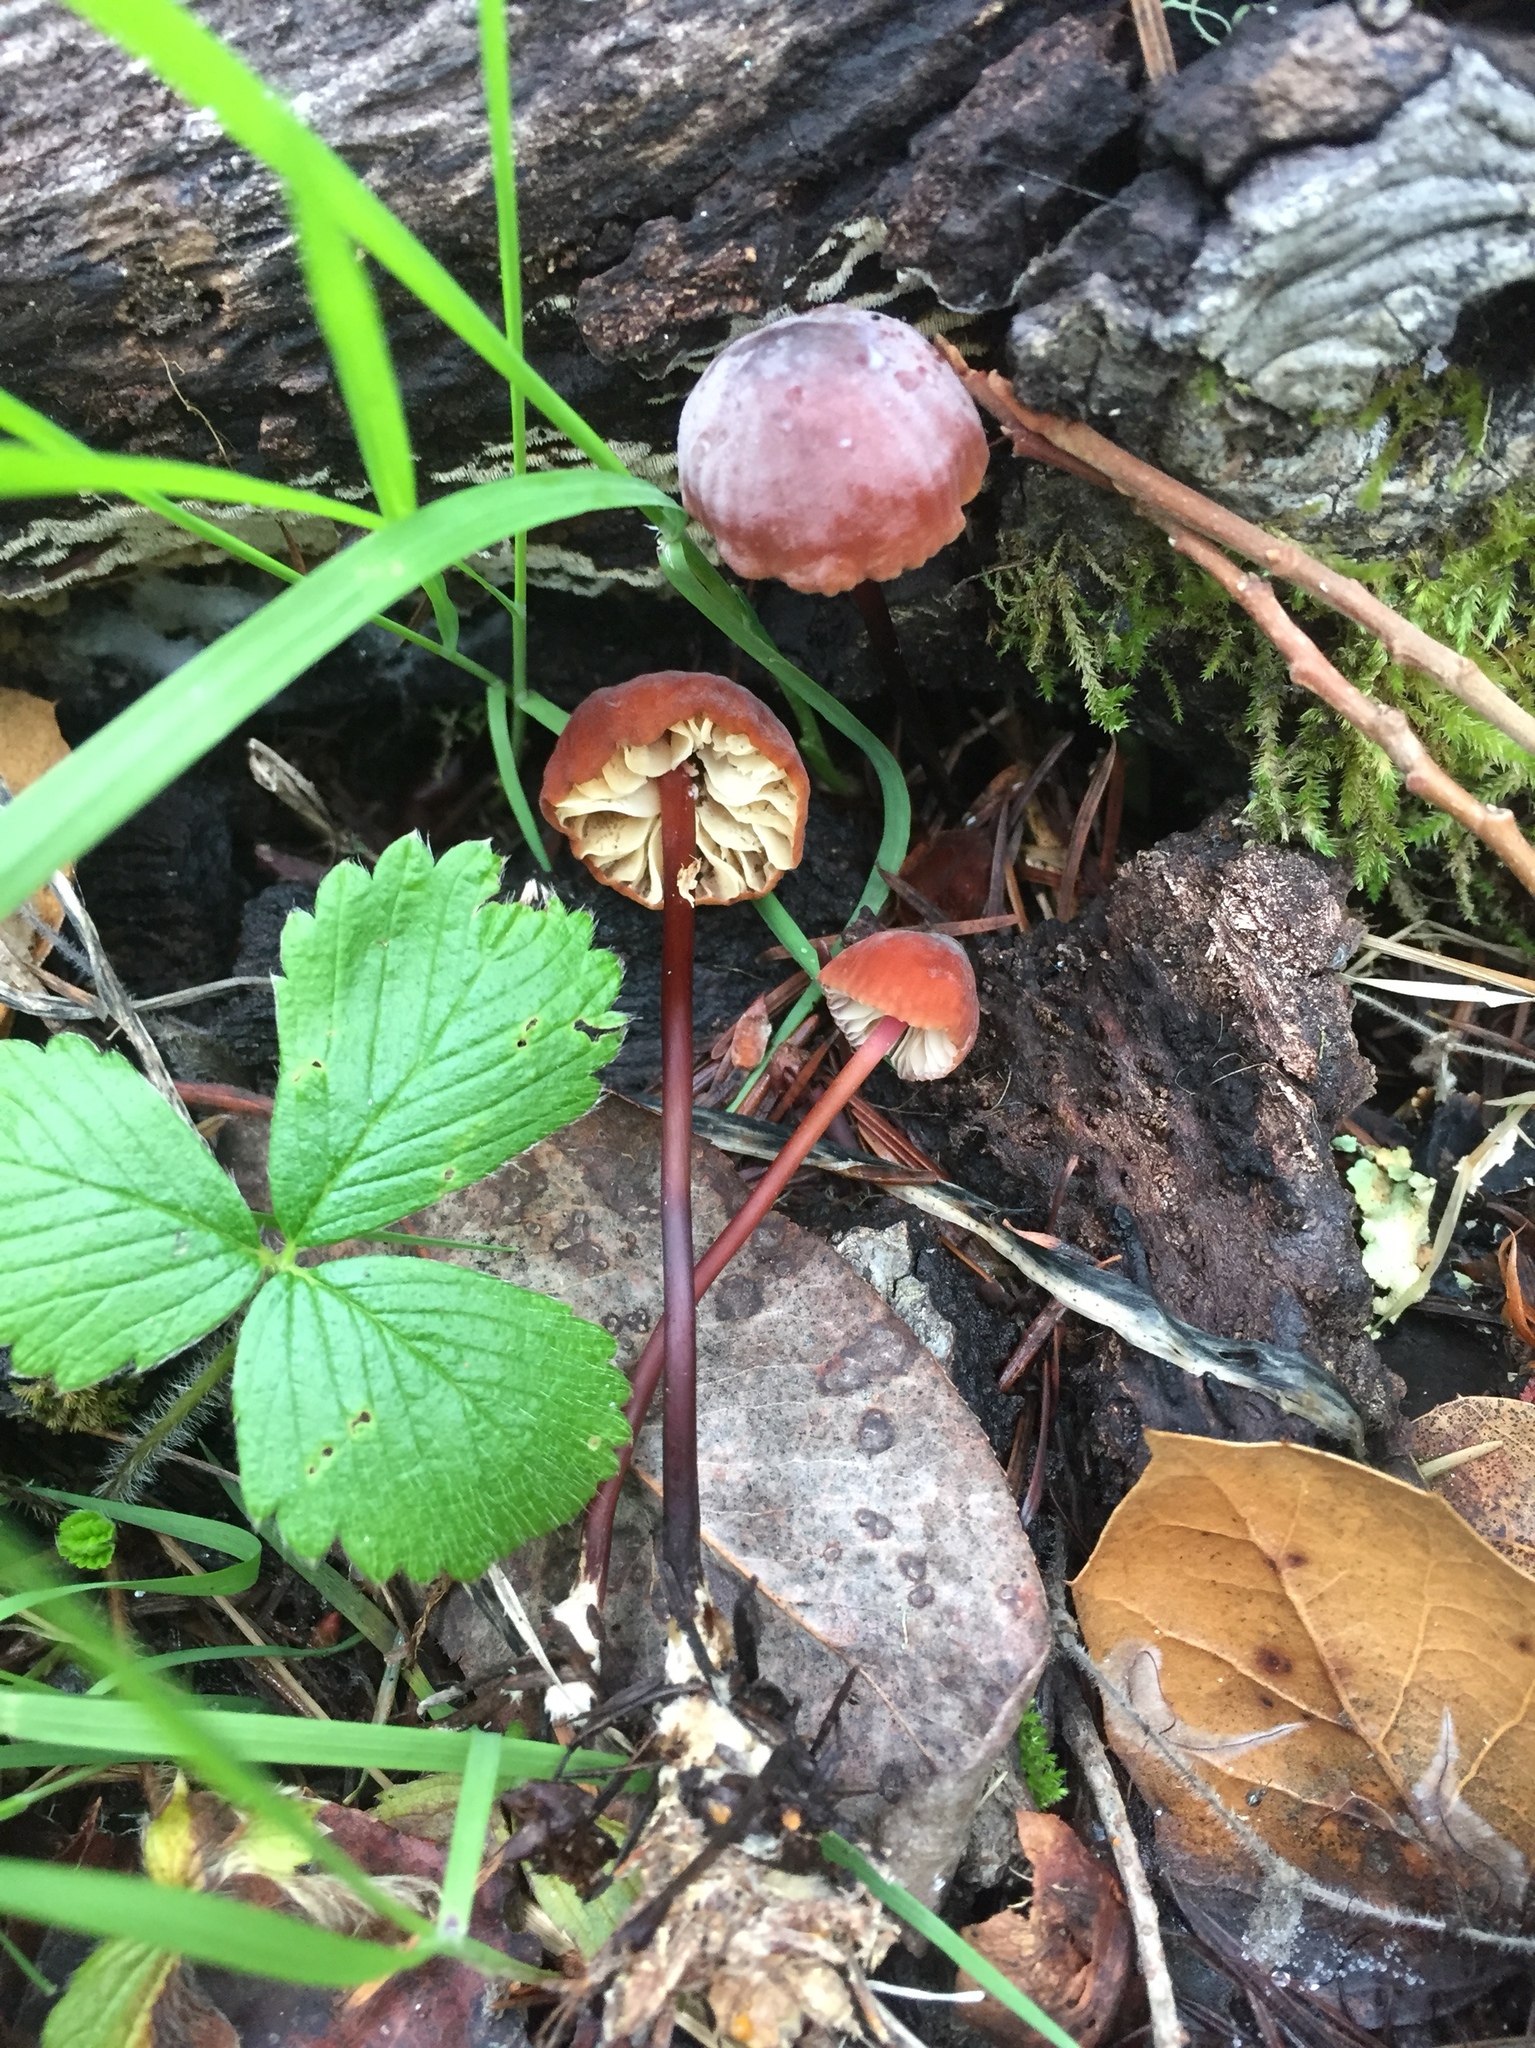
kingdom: Fungi
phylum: Basidiomycota
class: Agaricomycetes
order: Agaricales
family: Marasmiaceae
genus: Marasmius
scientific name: Marasmius plicatulus
